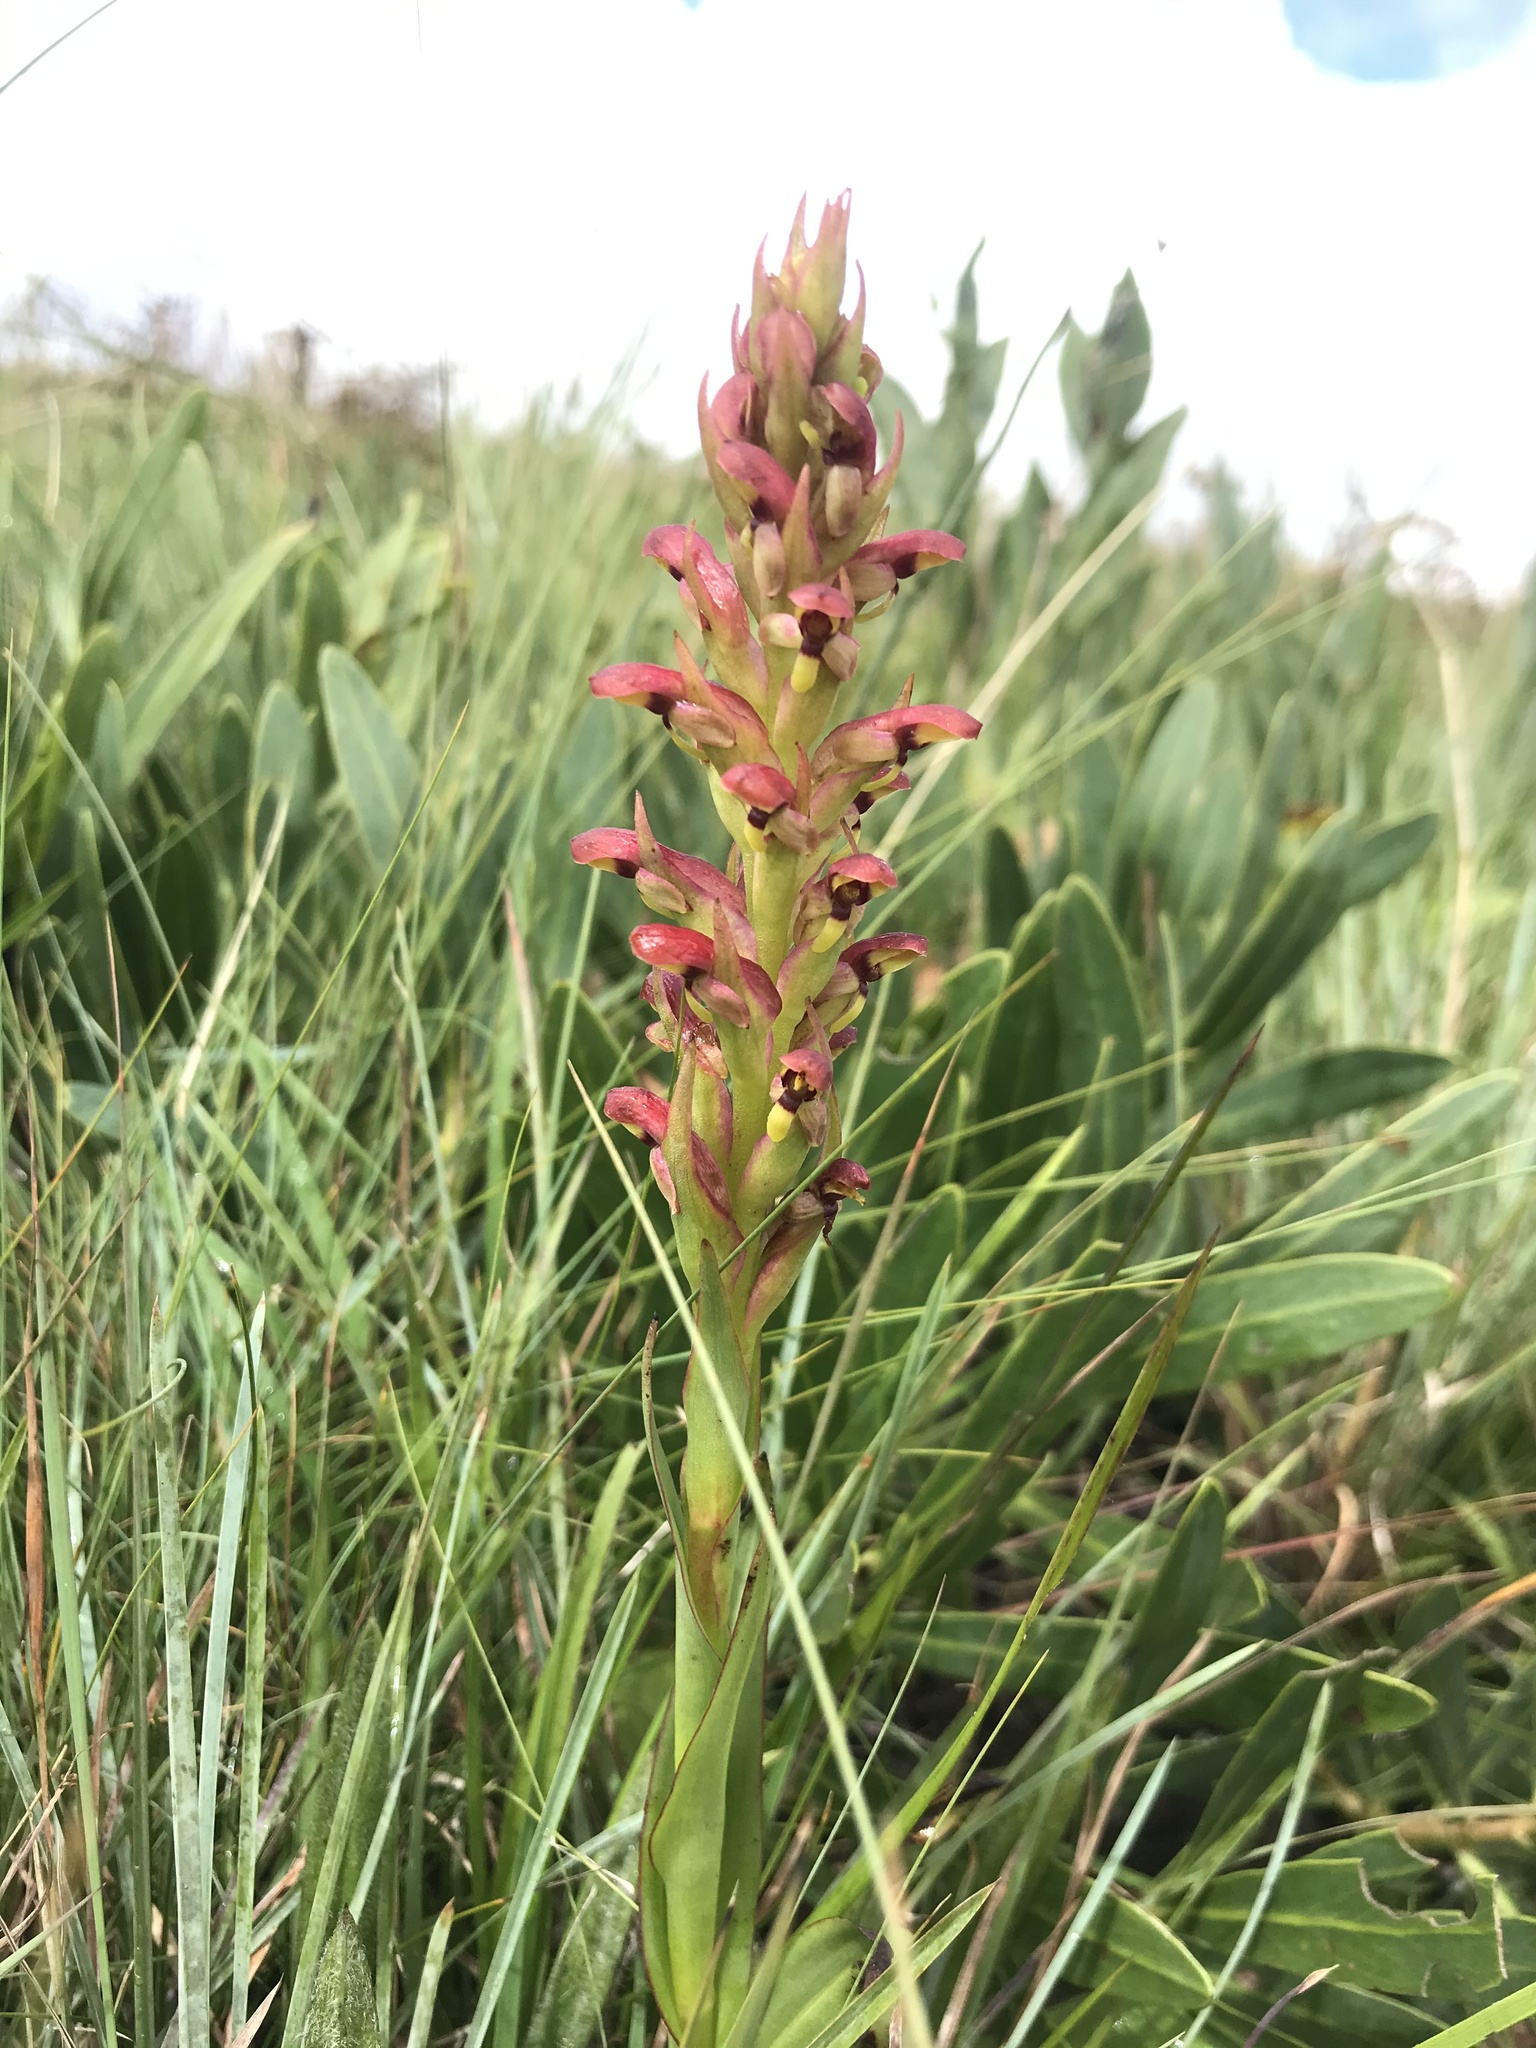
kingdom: Plantae
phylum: Tracheophyta
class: Liliopsida
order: Asparagales
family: Orchidaceae
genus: Disa
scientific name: Disa brevicornis
